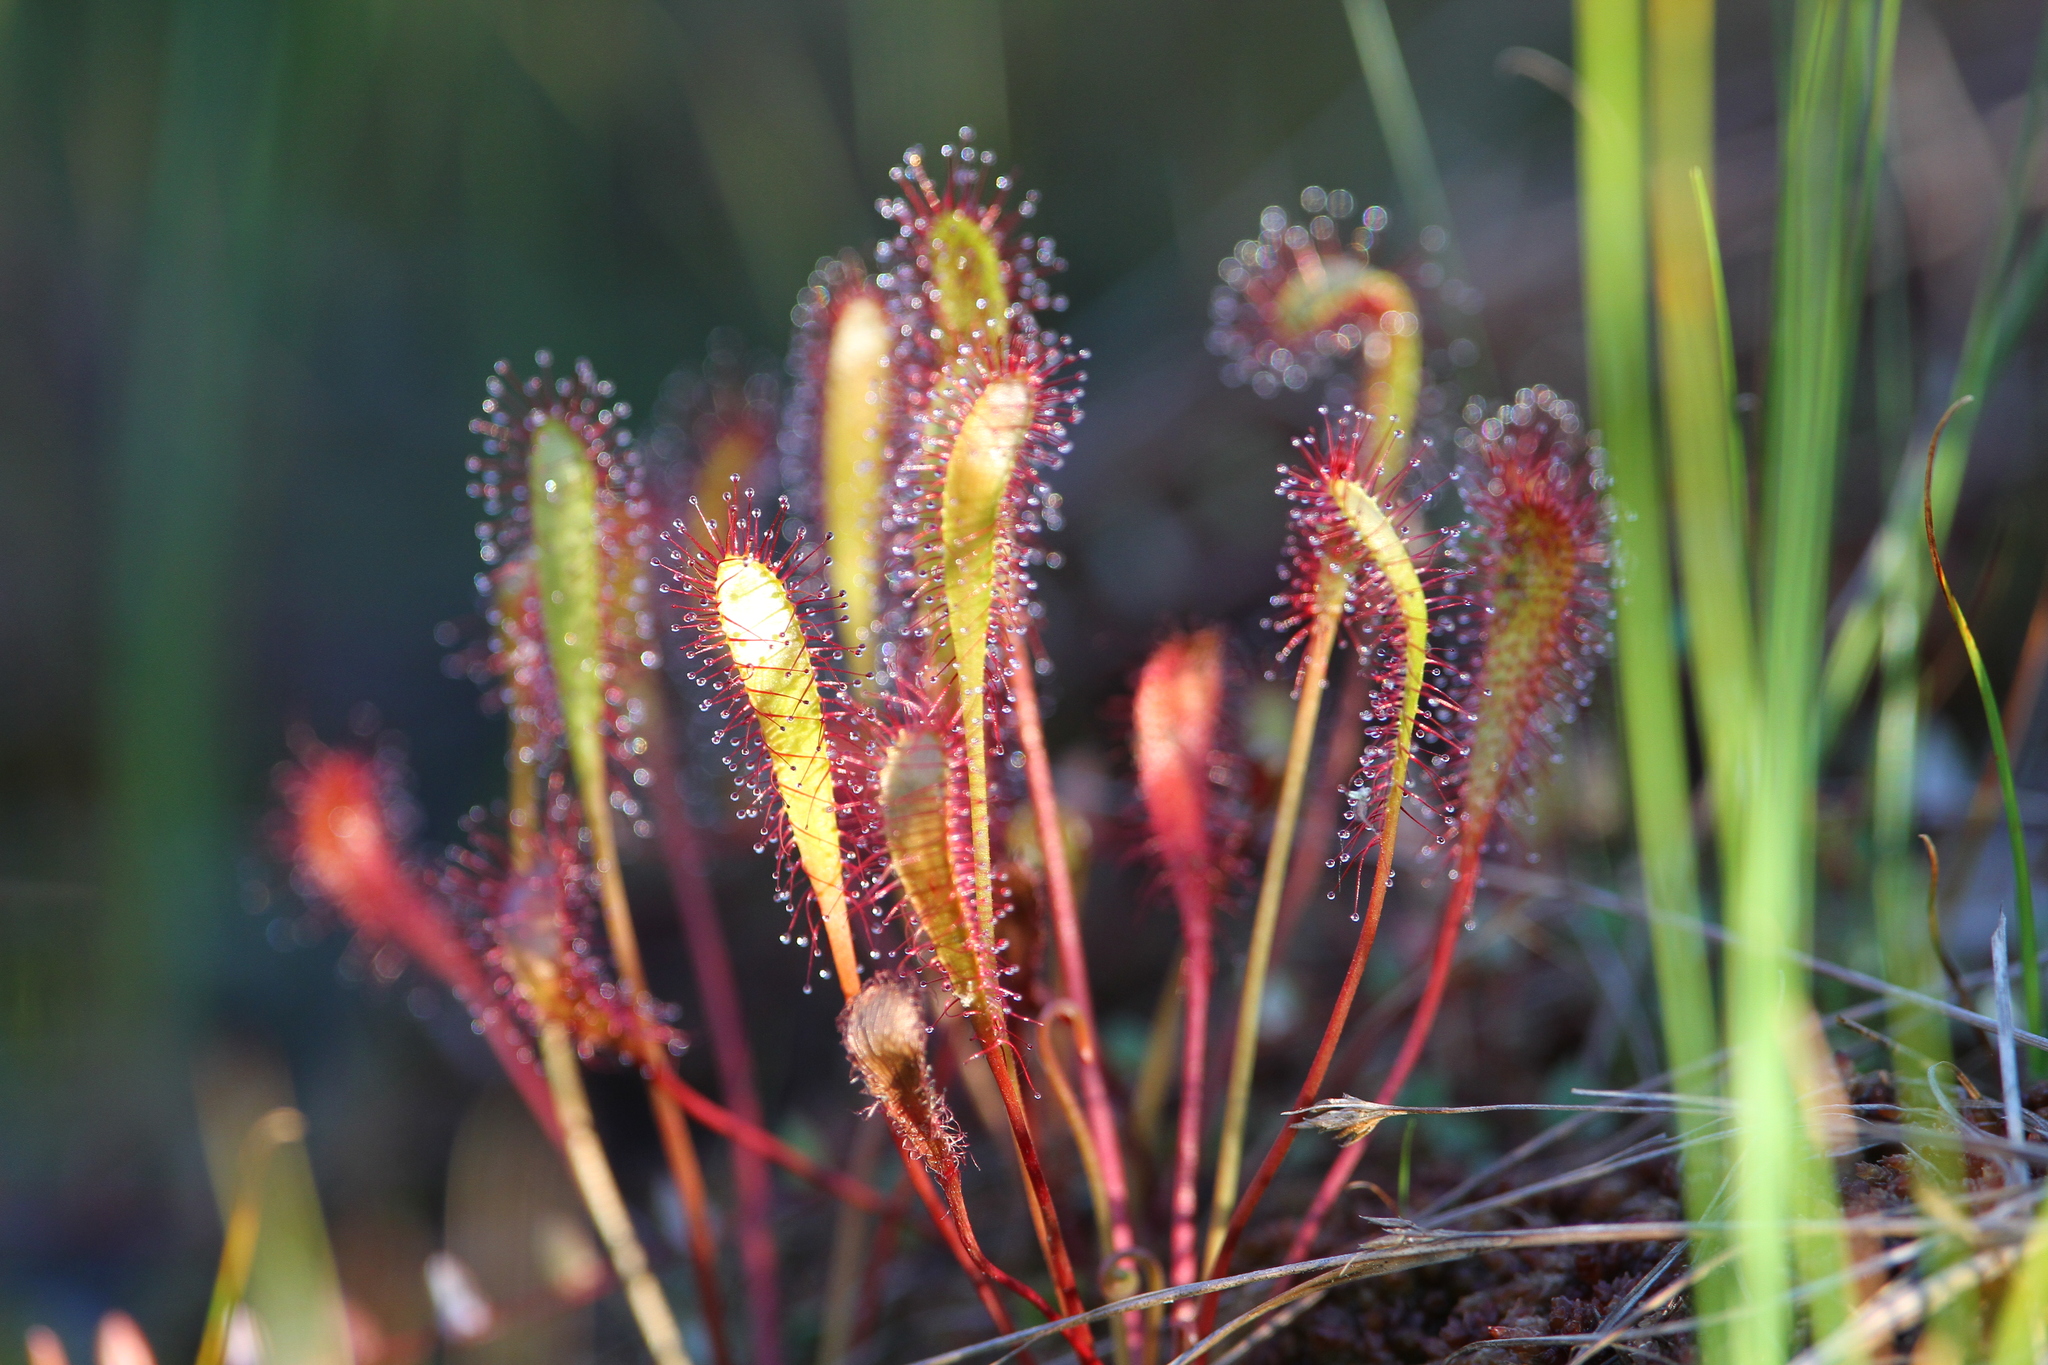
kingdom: Plantae
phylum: Tracheophyta
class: Magnoliopsida
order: Caryophyllales
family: Droseraceae
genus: Drosera
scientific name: Drosera anglica
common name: Great sundew
